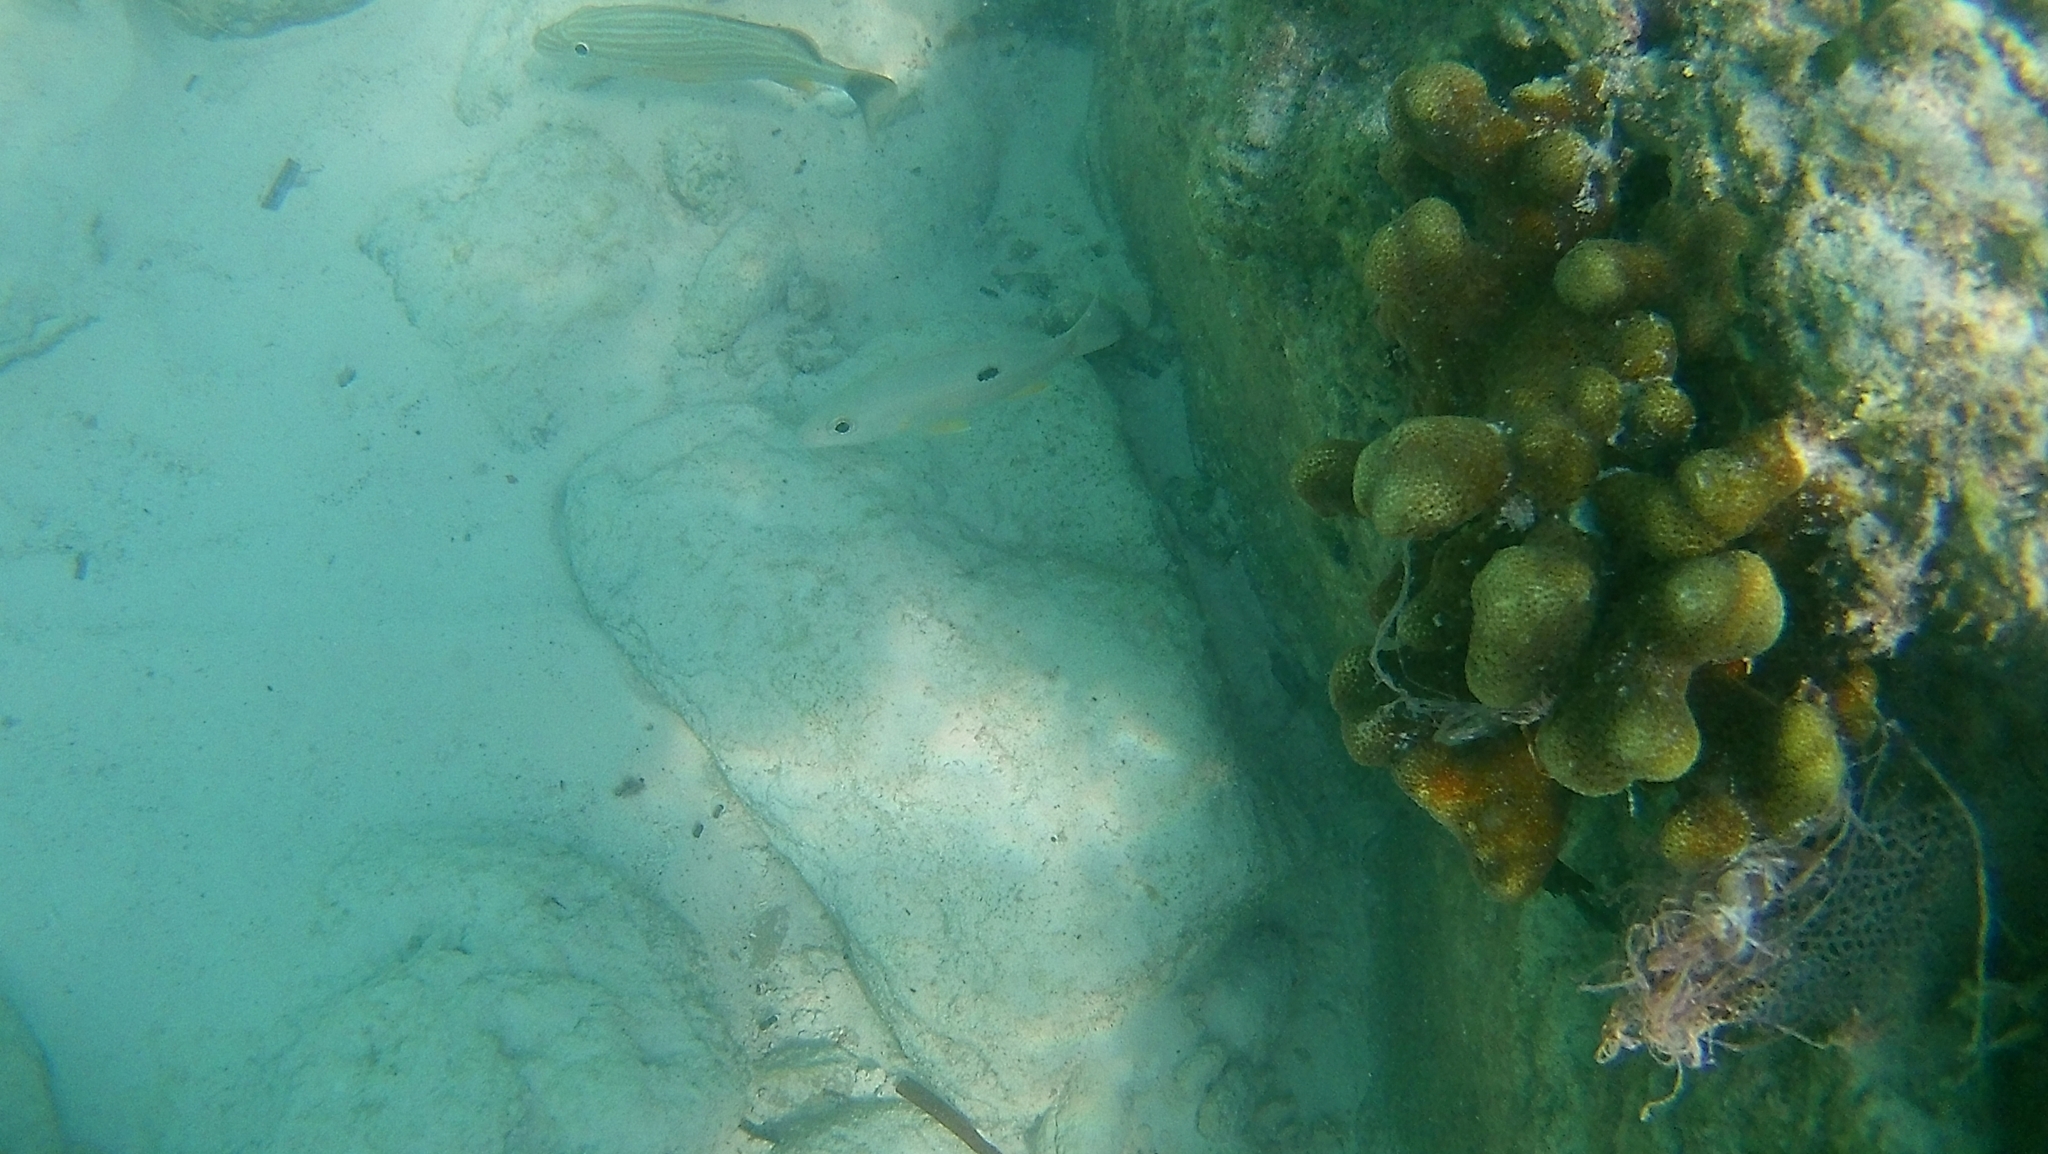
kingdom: Animalia
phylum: Chordata
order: Perciformes
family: Lutjanidae
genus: Lutjanus
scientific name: Lutjanus synagris
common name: Lane snapper
